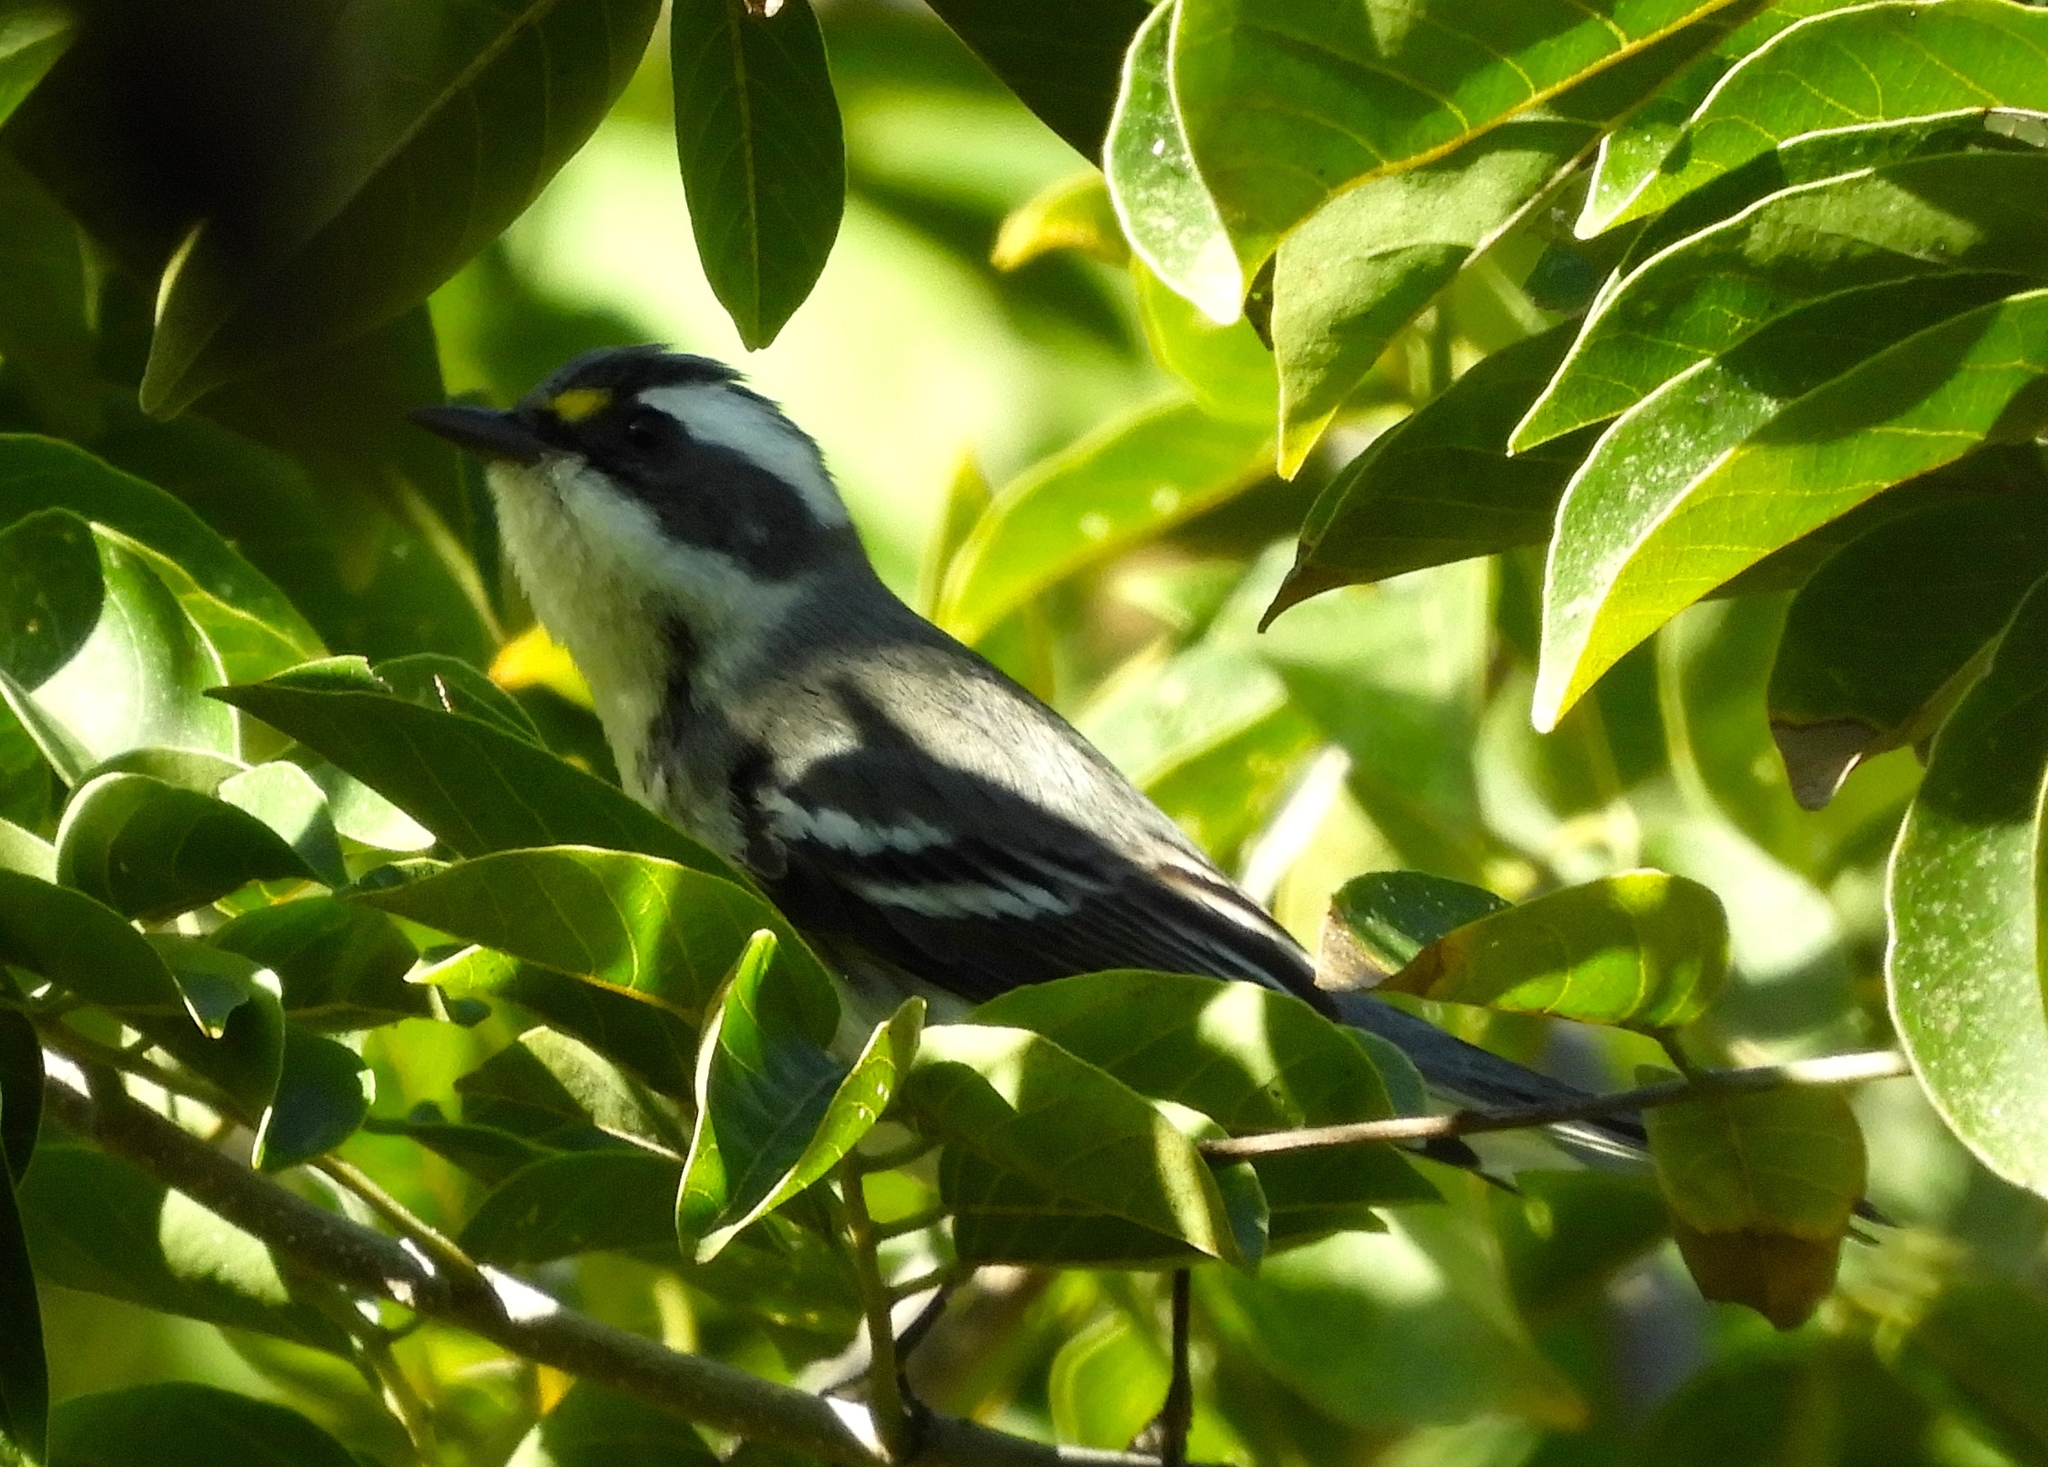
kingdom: Animalia
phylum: Chordata
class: Aves
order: Passeriformes
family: Parulidae
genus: Setophaga
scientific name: Setophaga nigrescens
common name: Black-throated gray warbler
